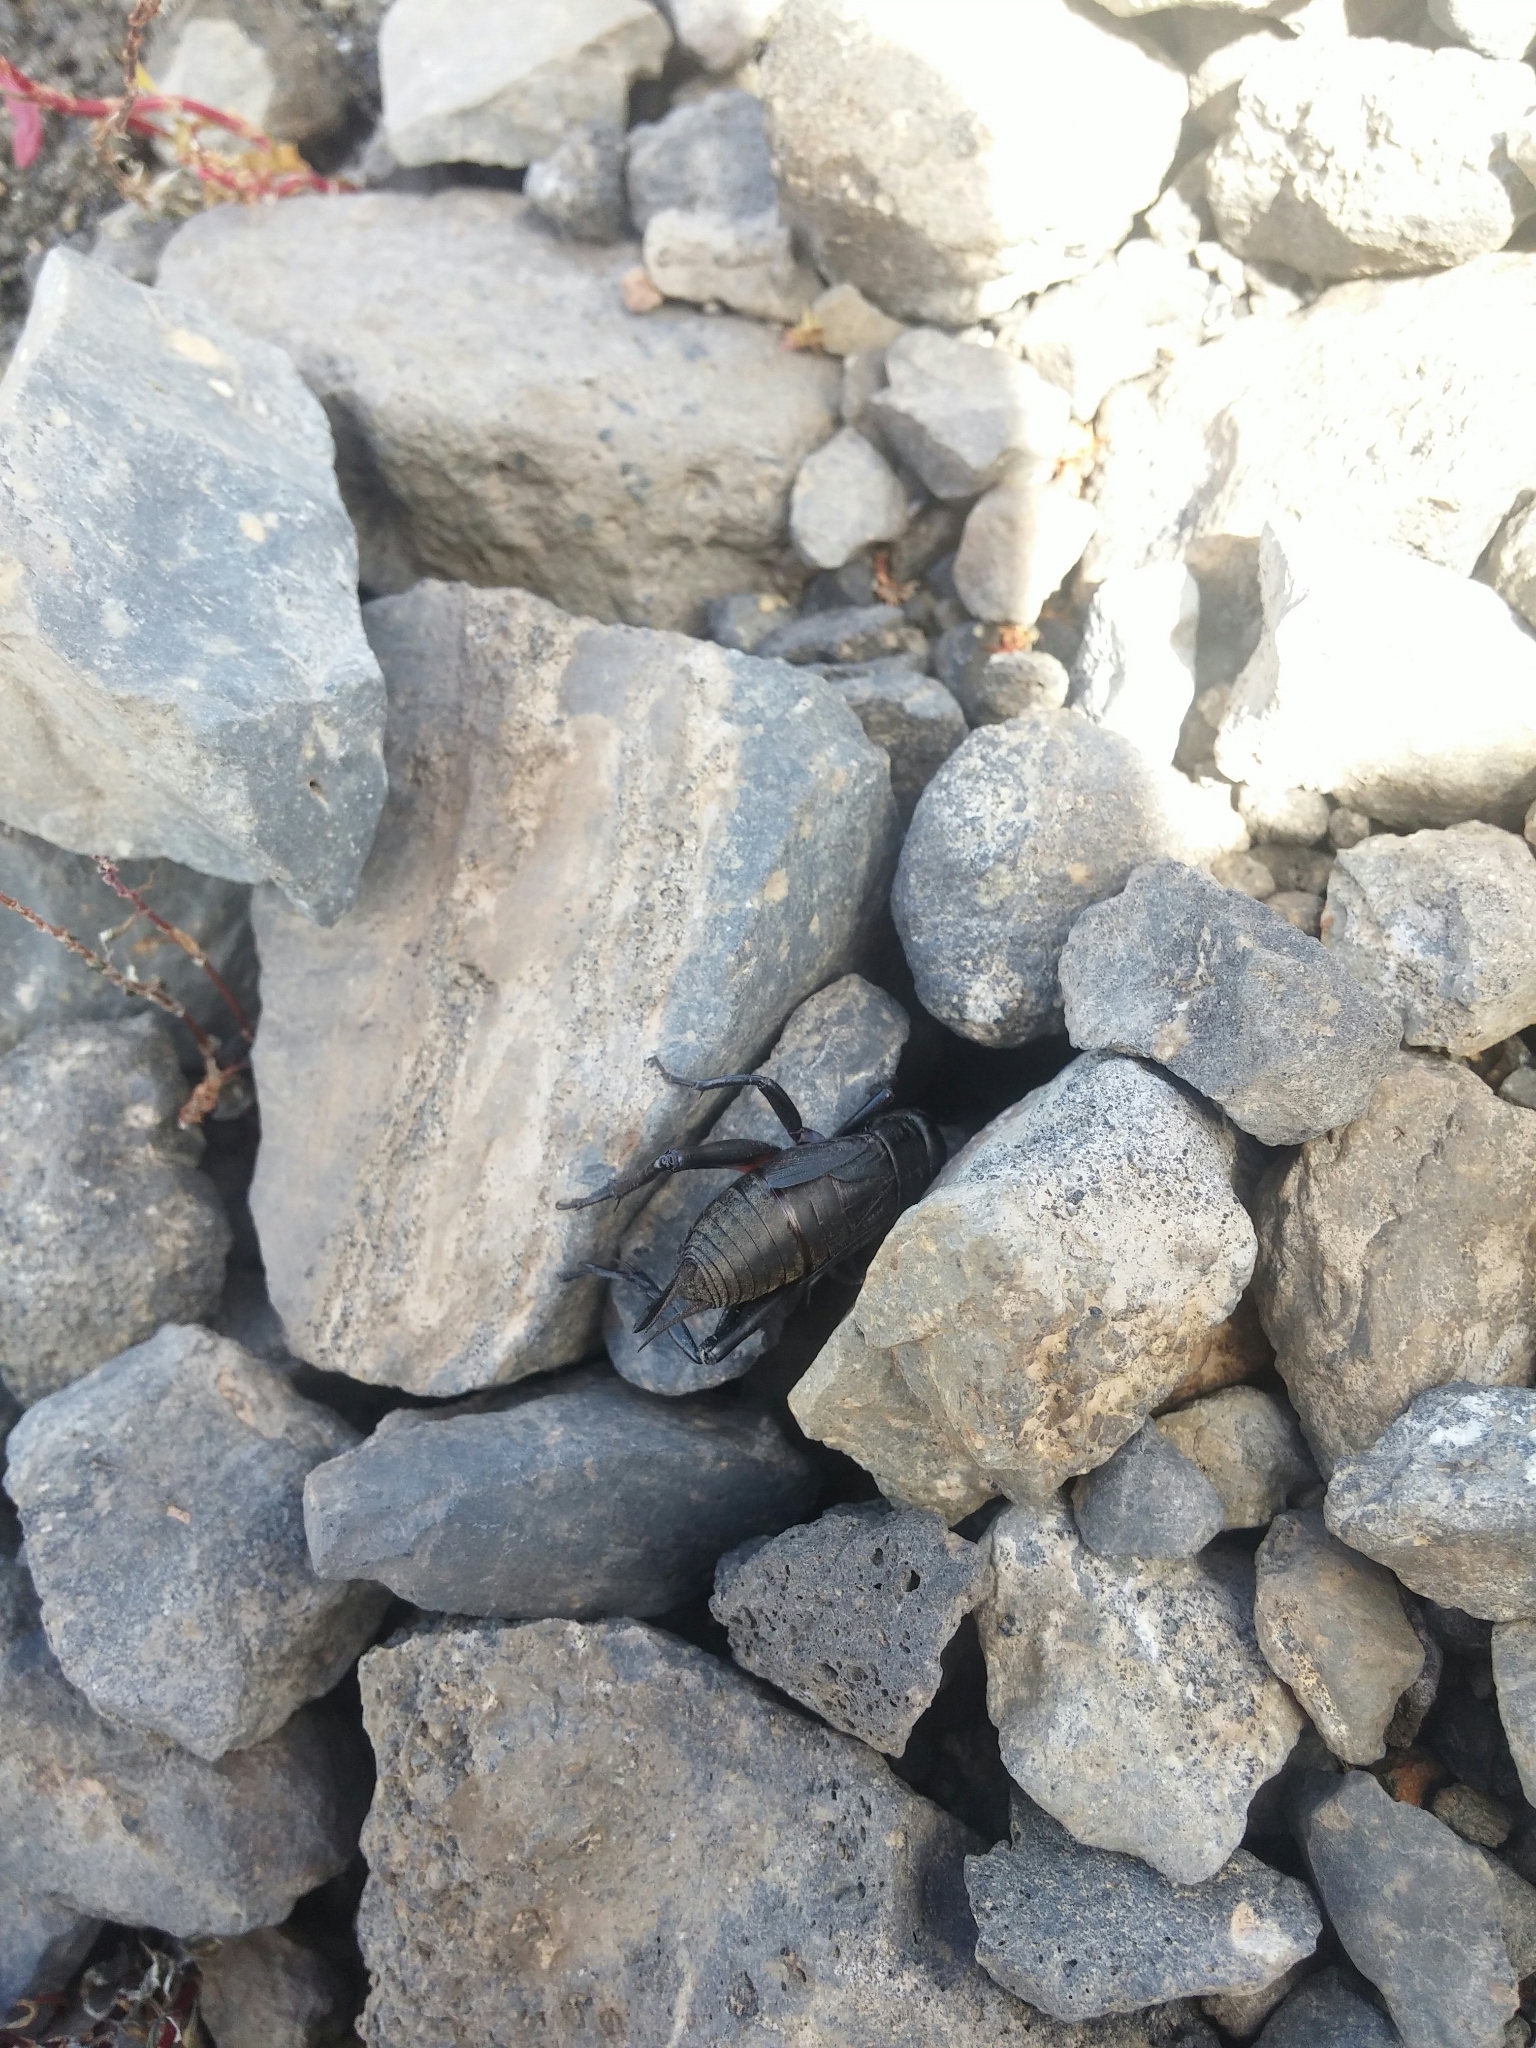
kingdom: Animalia
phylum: Arthropoda
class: Insecta
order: Orthoptera
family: Gryllidae
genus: Gryllus
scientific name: Gryllus bimaculatus
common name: Two-spotted cricket
